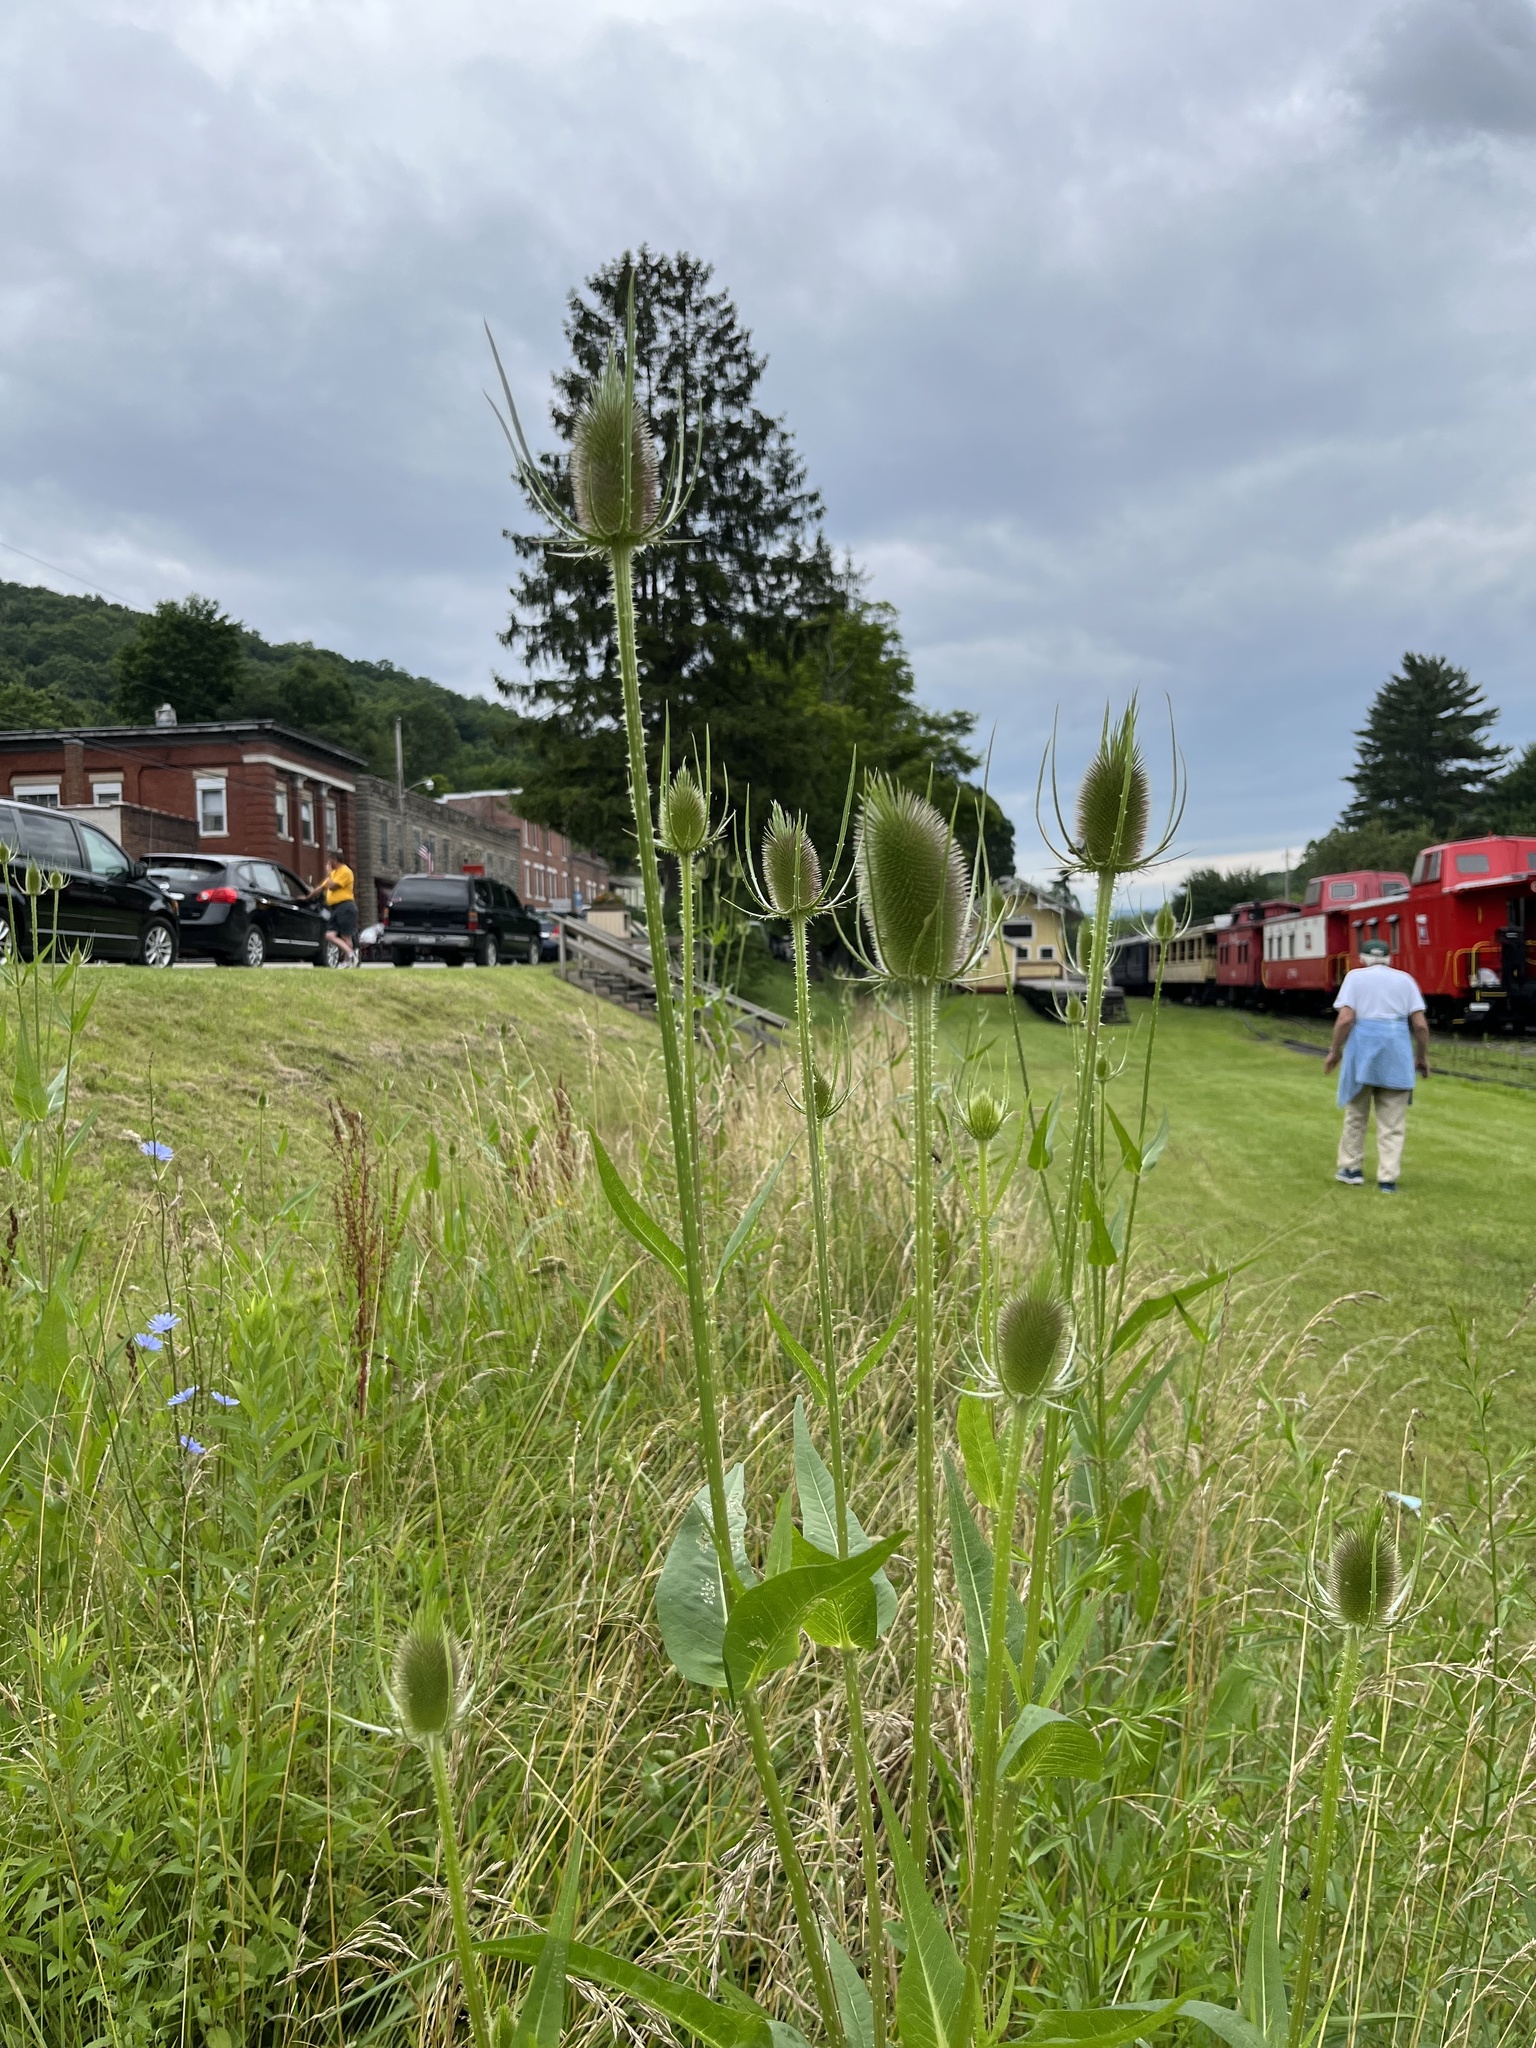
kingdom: Plantae
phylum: Tracheophyta
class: Magnoliopsida
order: Dipsacales
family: Caprifoliaceae
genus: Dipsacus
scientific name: Dipsacus fullonum
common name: Teasel
